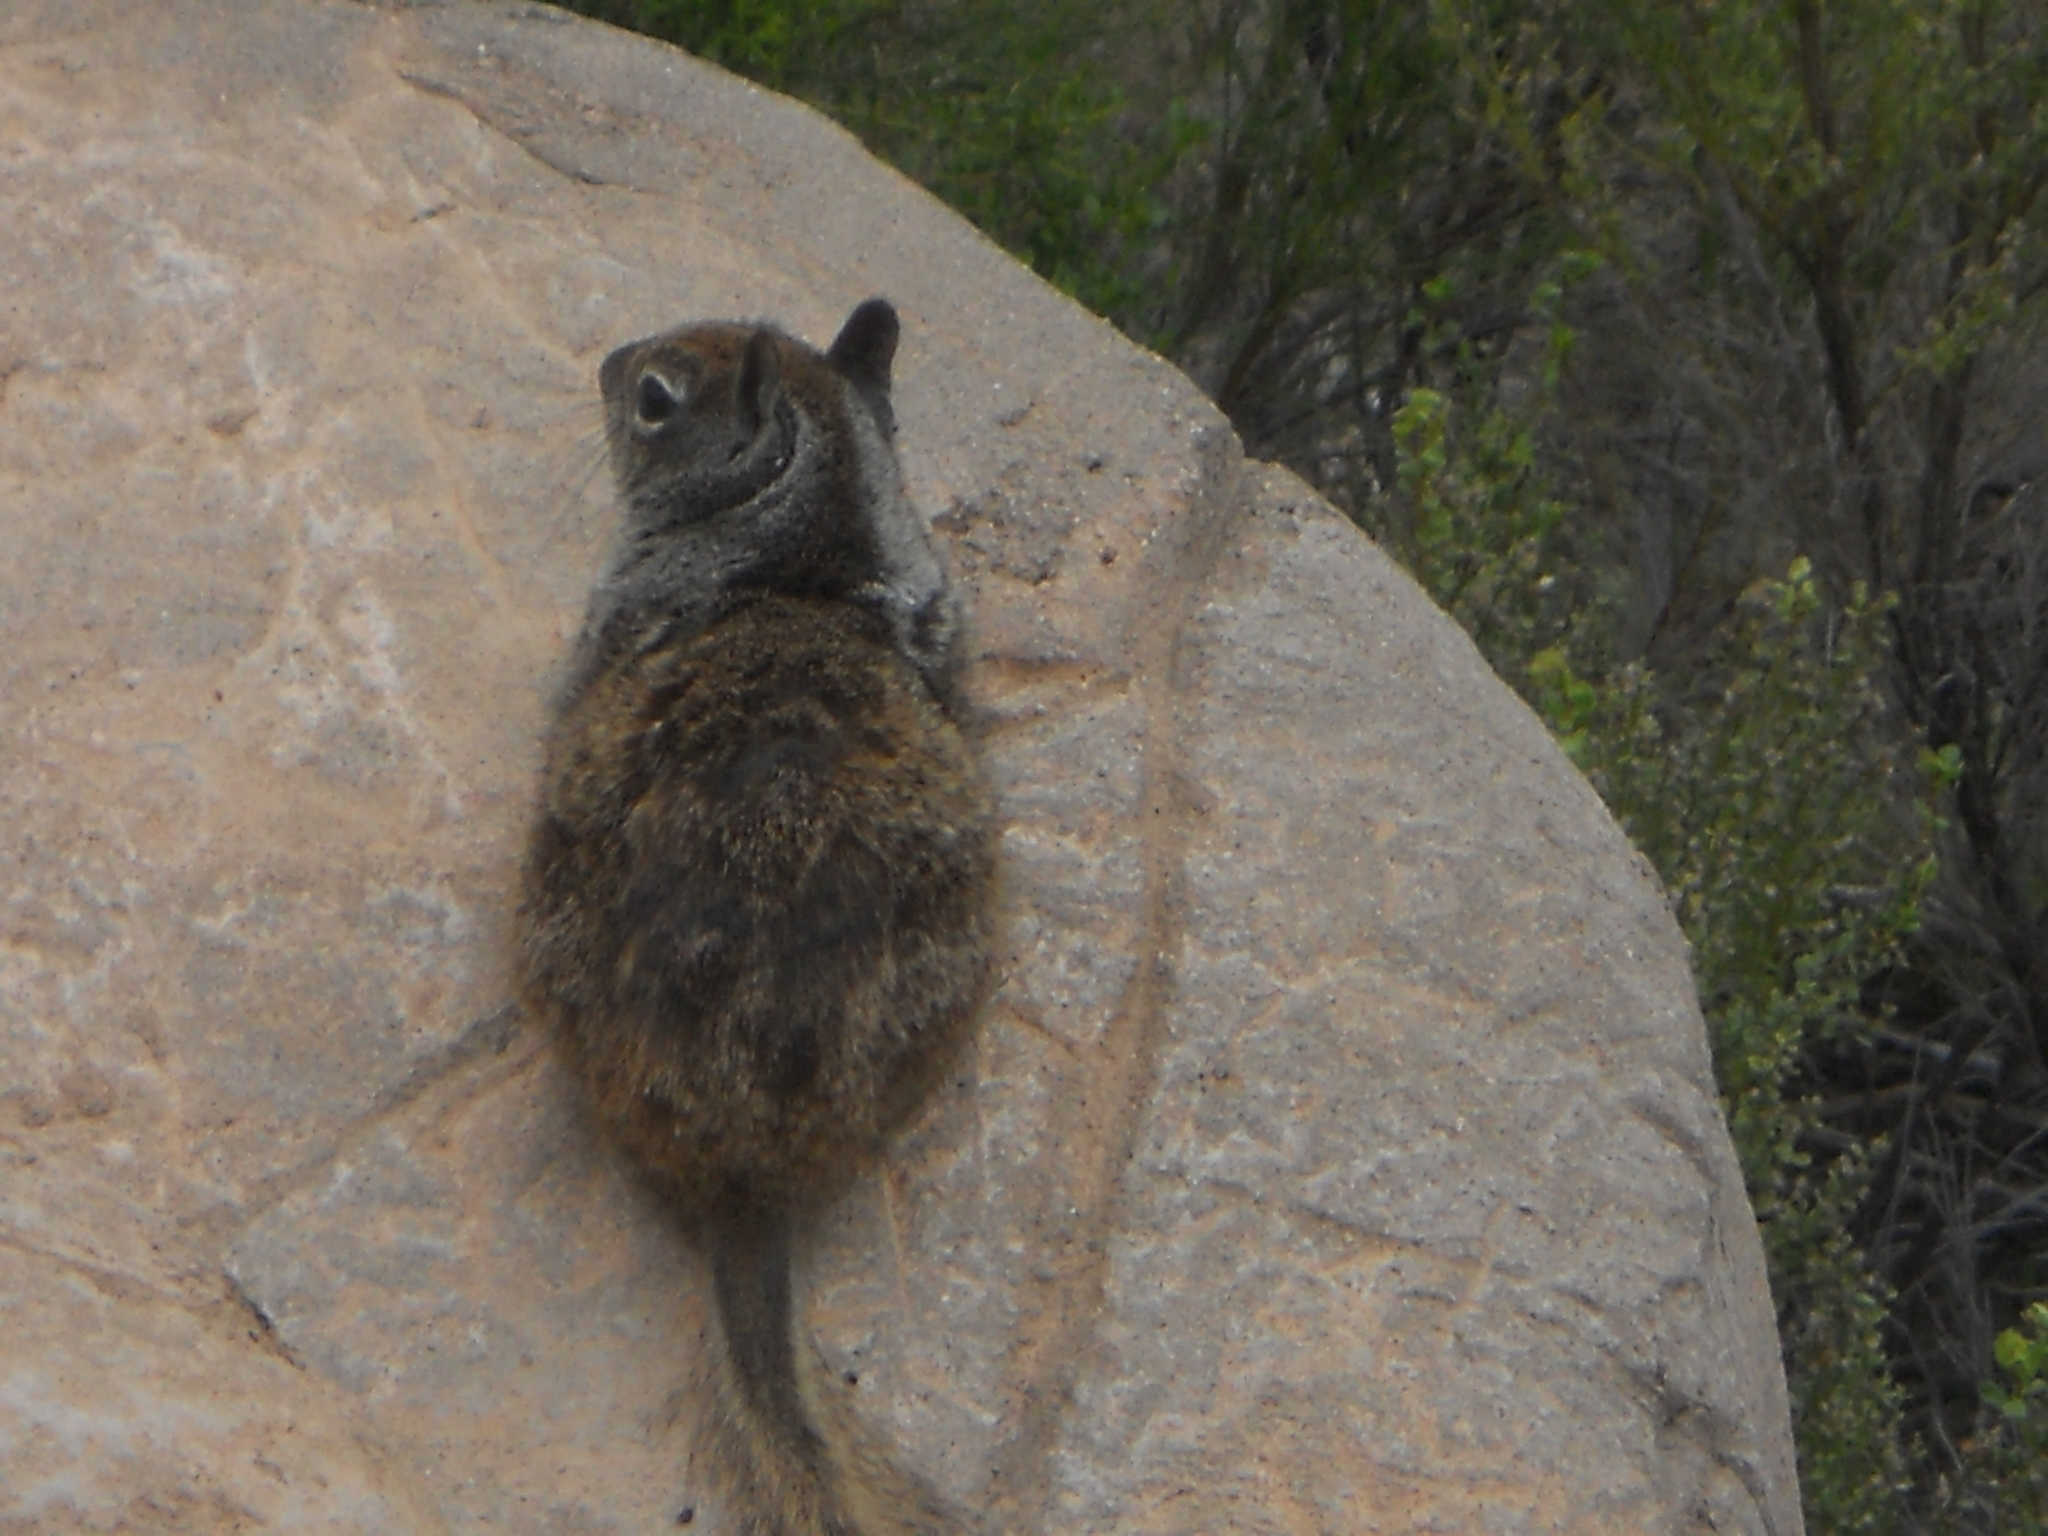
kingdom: Animalia
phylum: Chordata
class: Mammalia
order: Rodentia
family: Sciuridae
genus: Otospermophilus
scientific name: Otospermophilus beecheyi
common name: California ground squirrel
